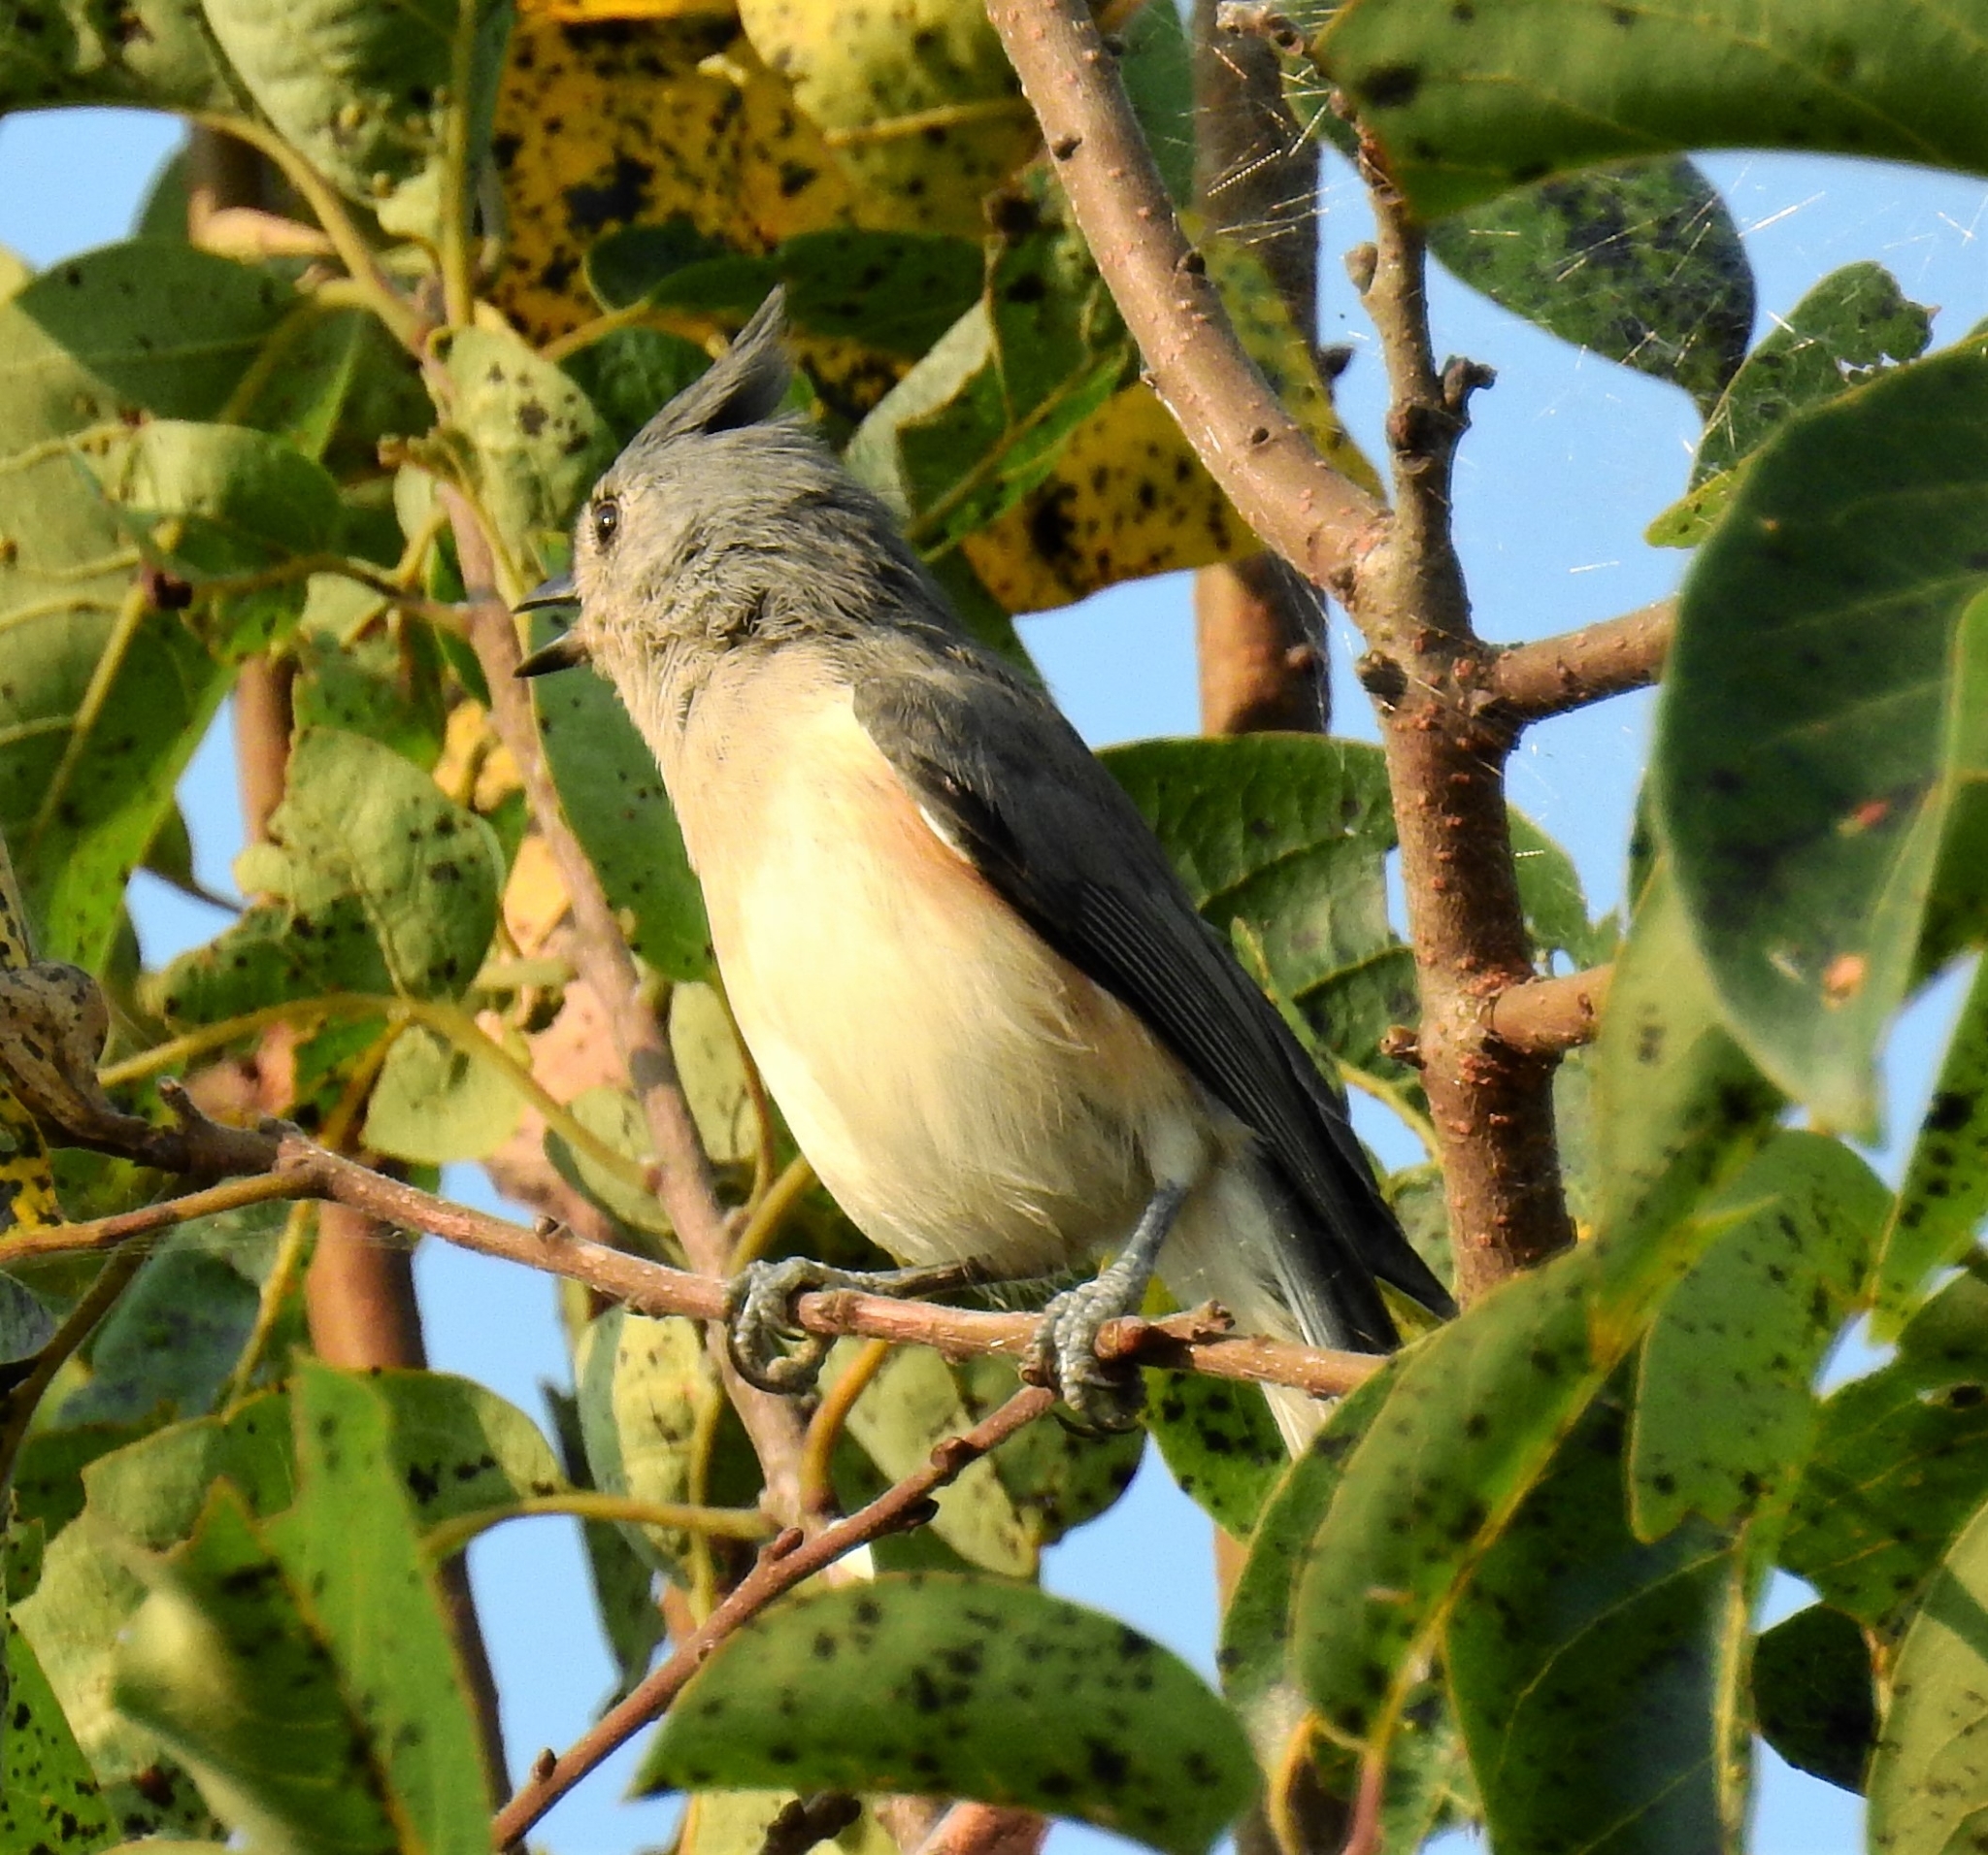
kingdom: Animalia
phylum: Chordata
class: Aves
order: Passeriformes
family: Paridae
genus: Baeolophus
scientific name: Baeolophus bicolor
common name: Tufted titmouse
